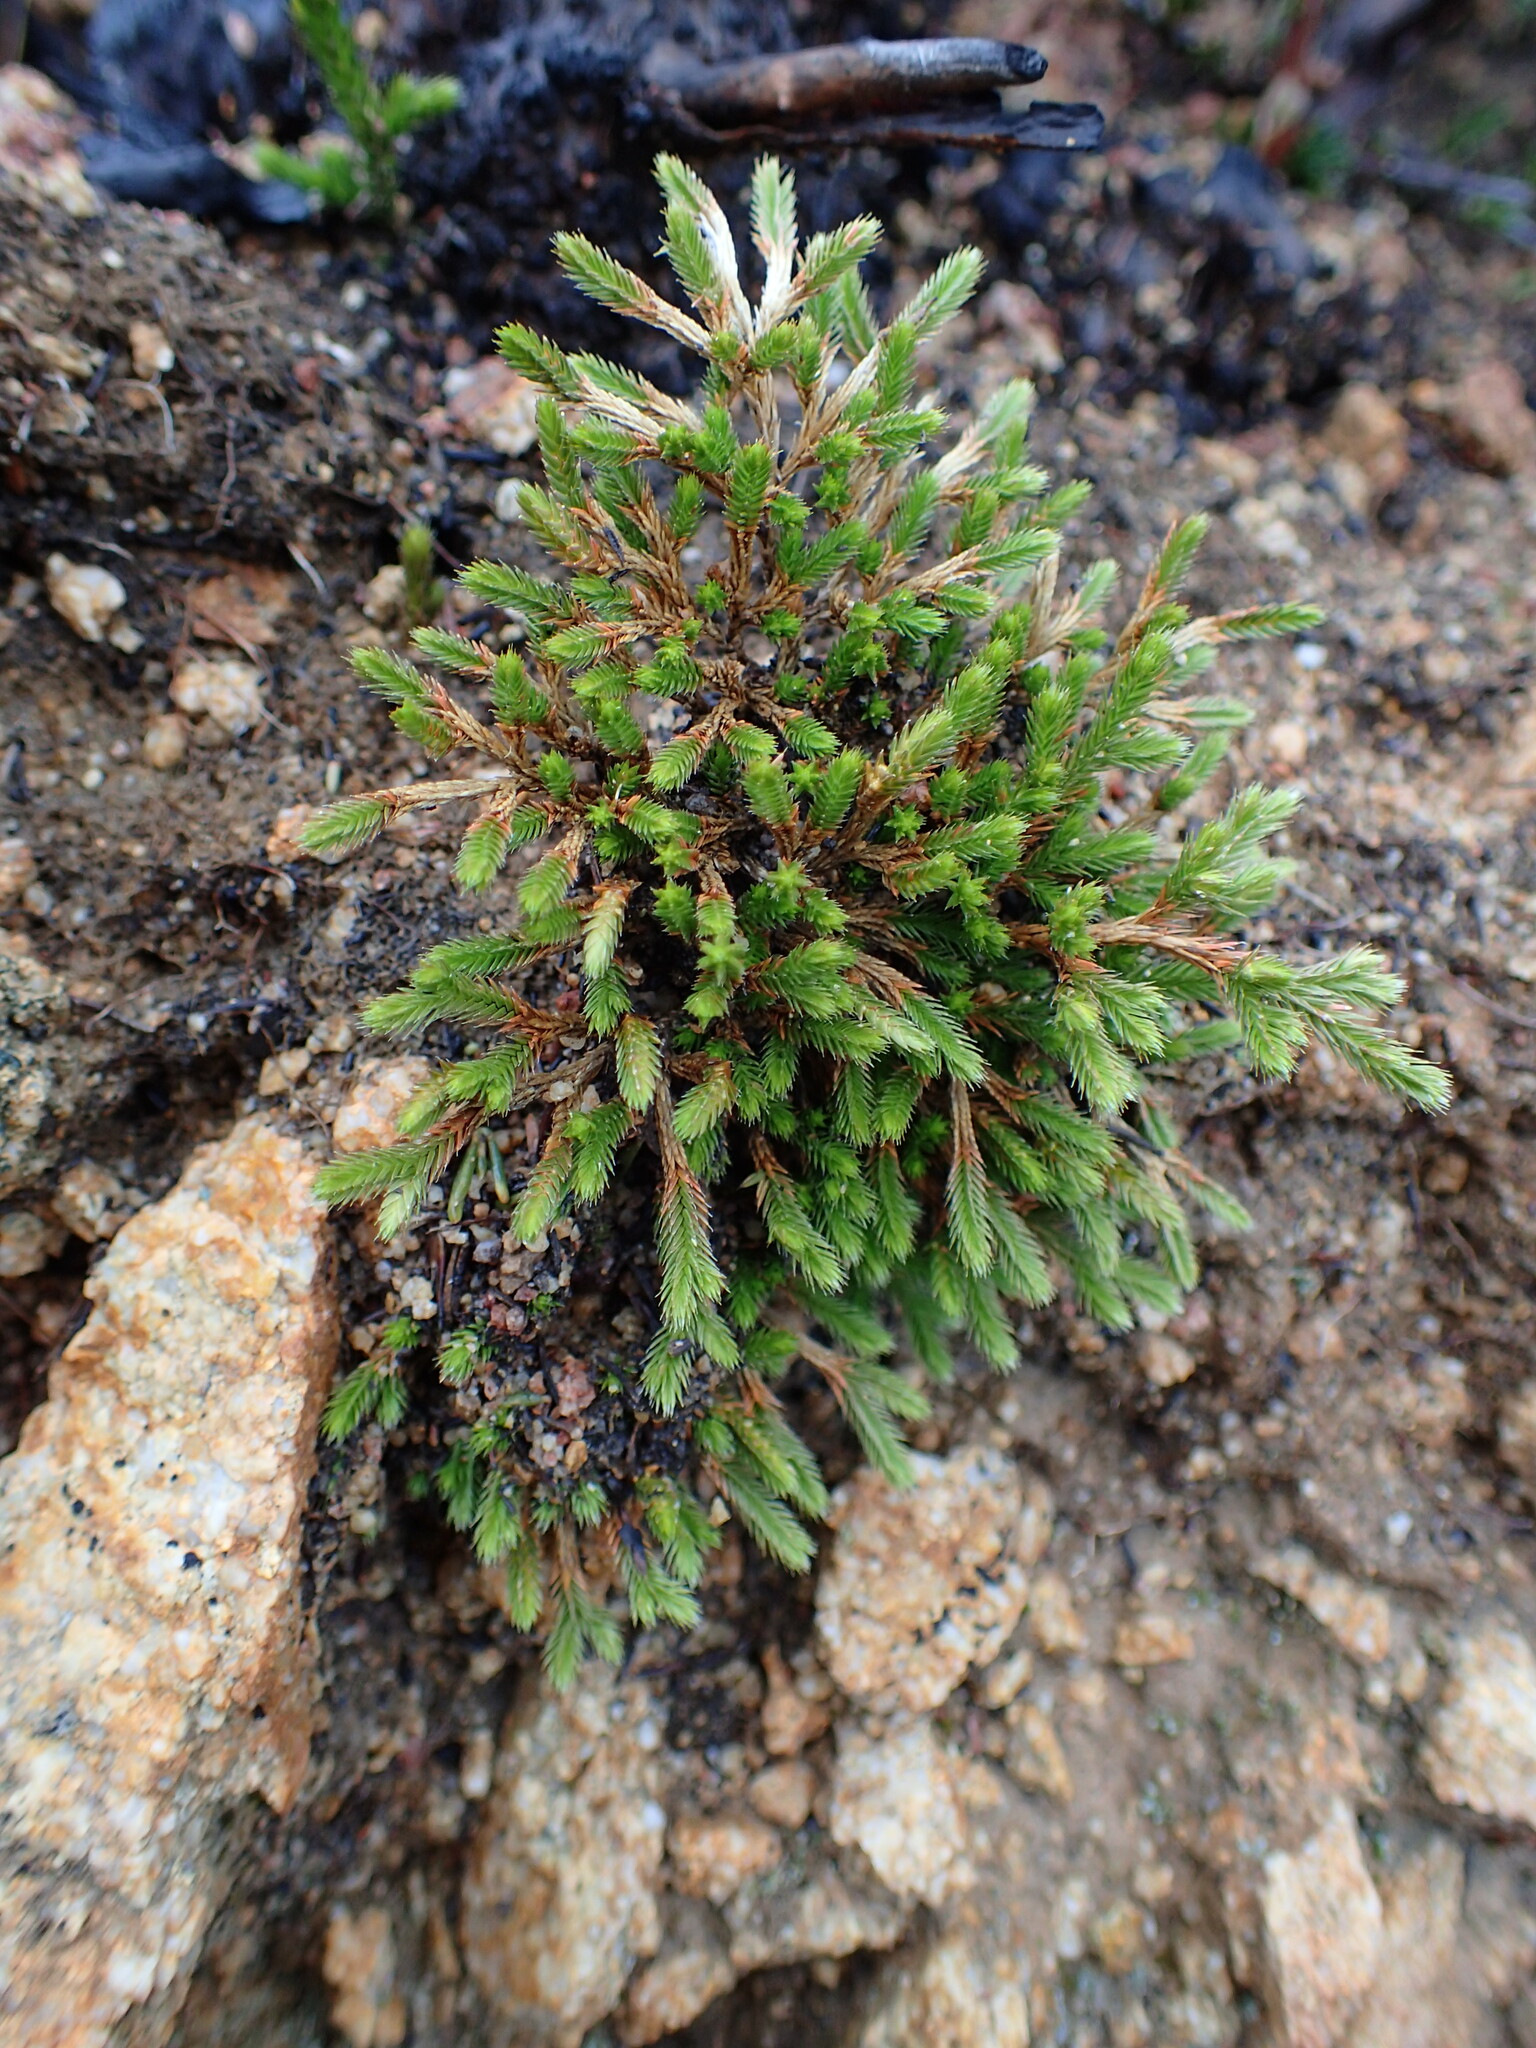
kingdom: Plantae
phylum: Tracheophyta
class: Lycopodiopsida
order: Selaginellales
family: Selaginellaceae
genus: Selaginella
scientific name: Selaginella bigelovii
